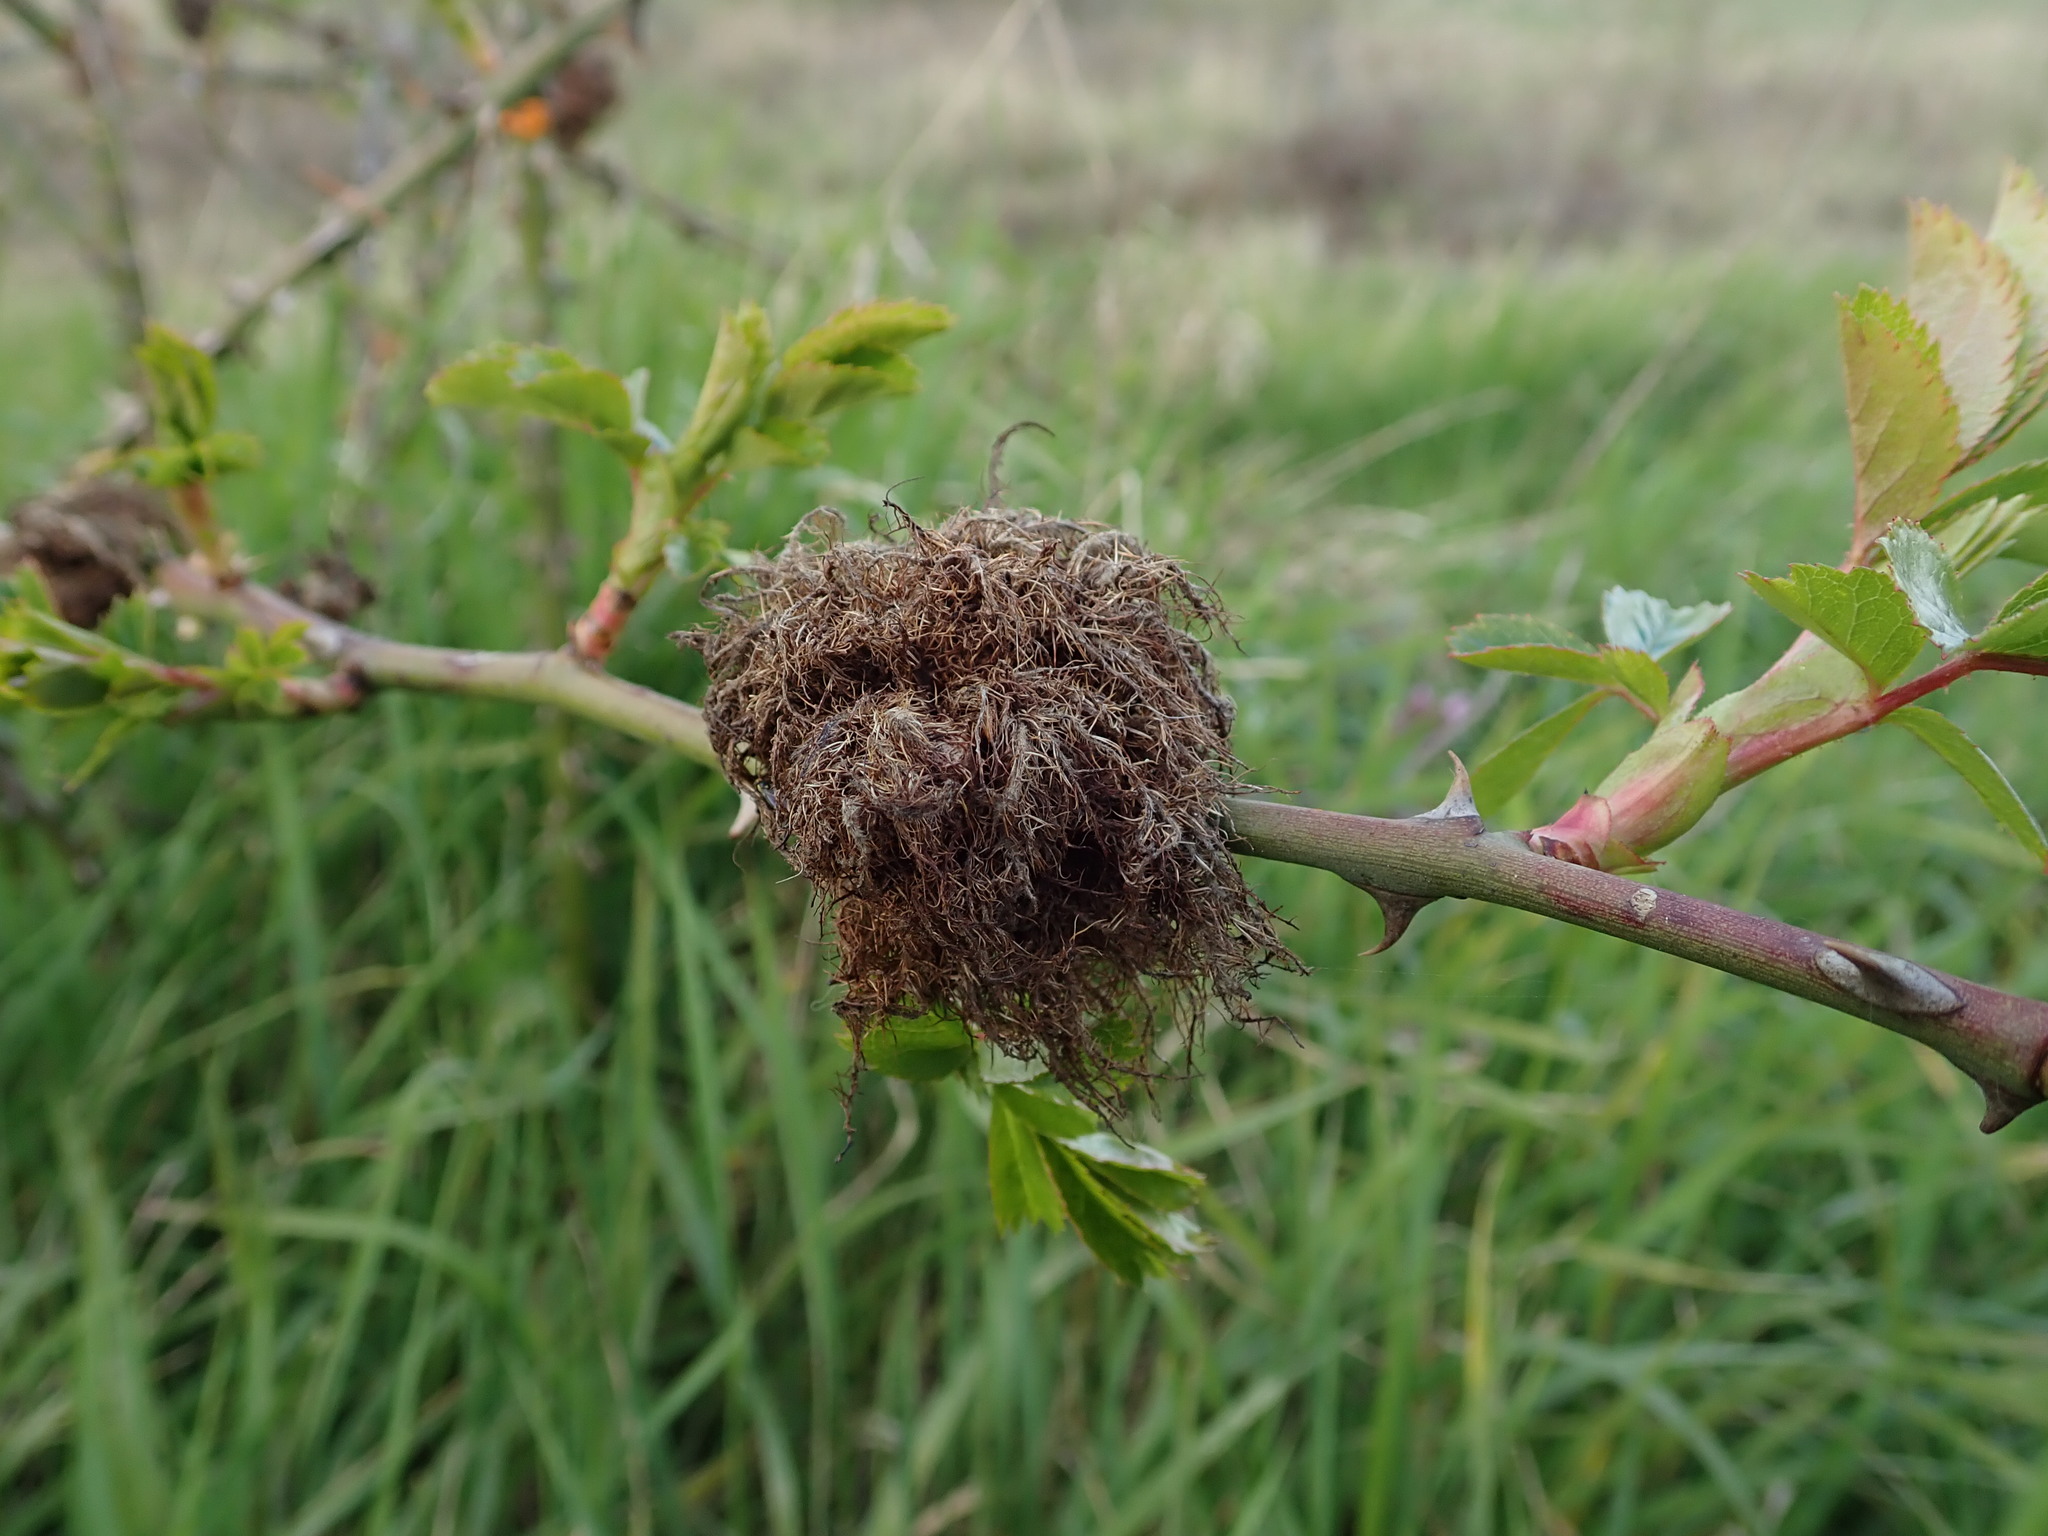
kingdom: Animalia
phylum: Arthropoda
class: Insecta
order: Hymenoptera
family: Cynipidae
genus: Diplolepis
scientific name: Diplolepis rosae
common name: Bedeguar gall
